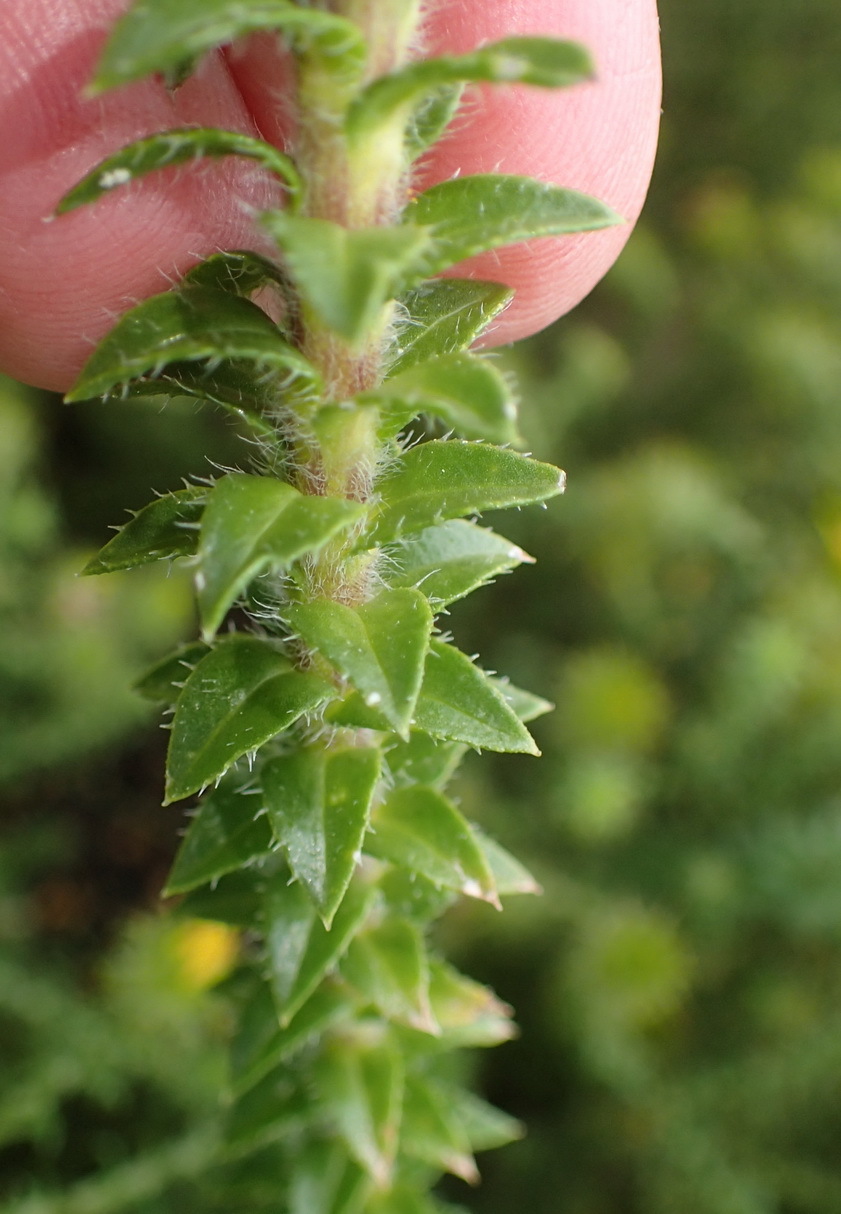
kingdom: Plantae
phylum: Tracheophyta
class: Magnoliopsida
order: Asterales
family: Asteraceae
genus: Felicia
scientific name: Felicia echinata
